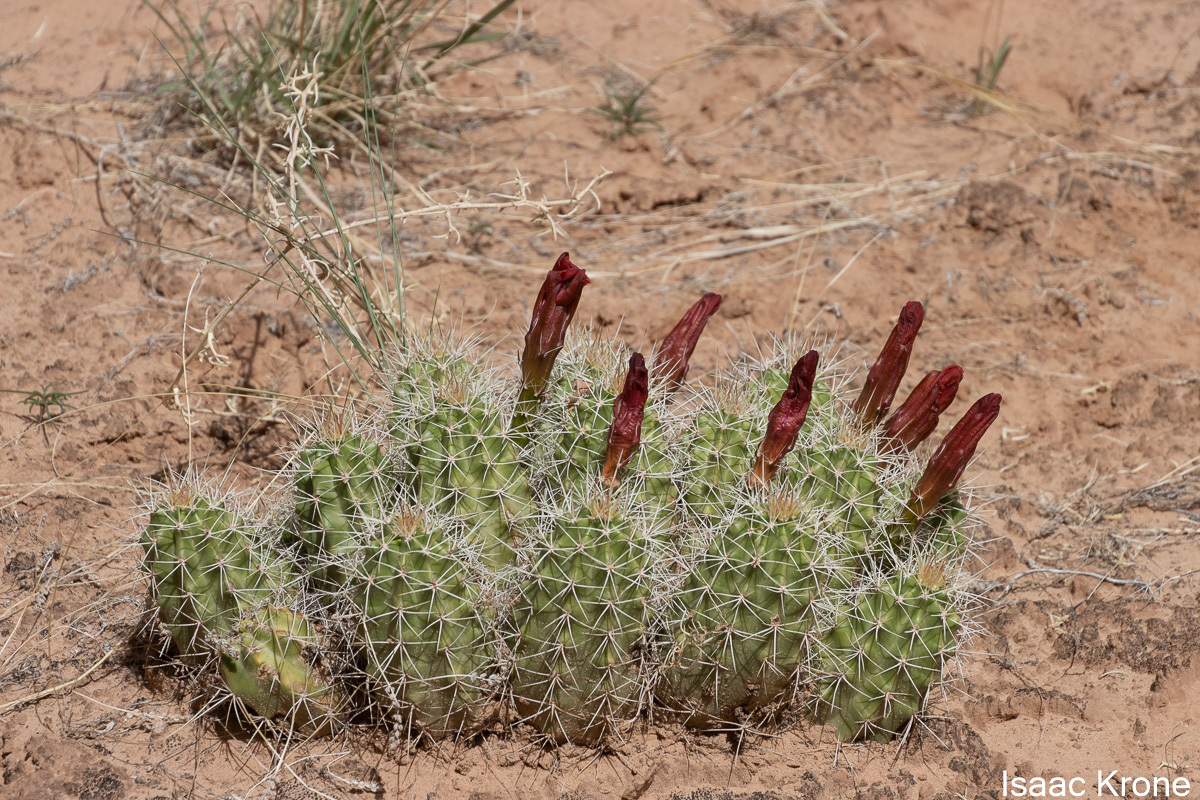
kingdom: Plantae
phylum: Tracheophyta
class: Magnoliopsida
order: Caryophyllales
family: Cactaceae
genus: Echinocereus
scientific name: Echinocereus triglochidiatus
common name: Claretcup hedgehog
